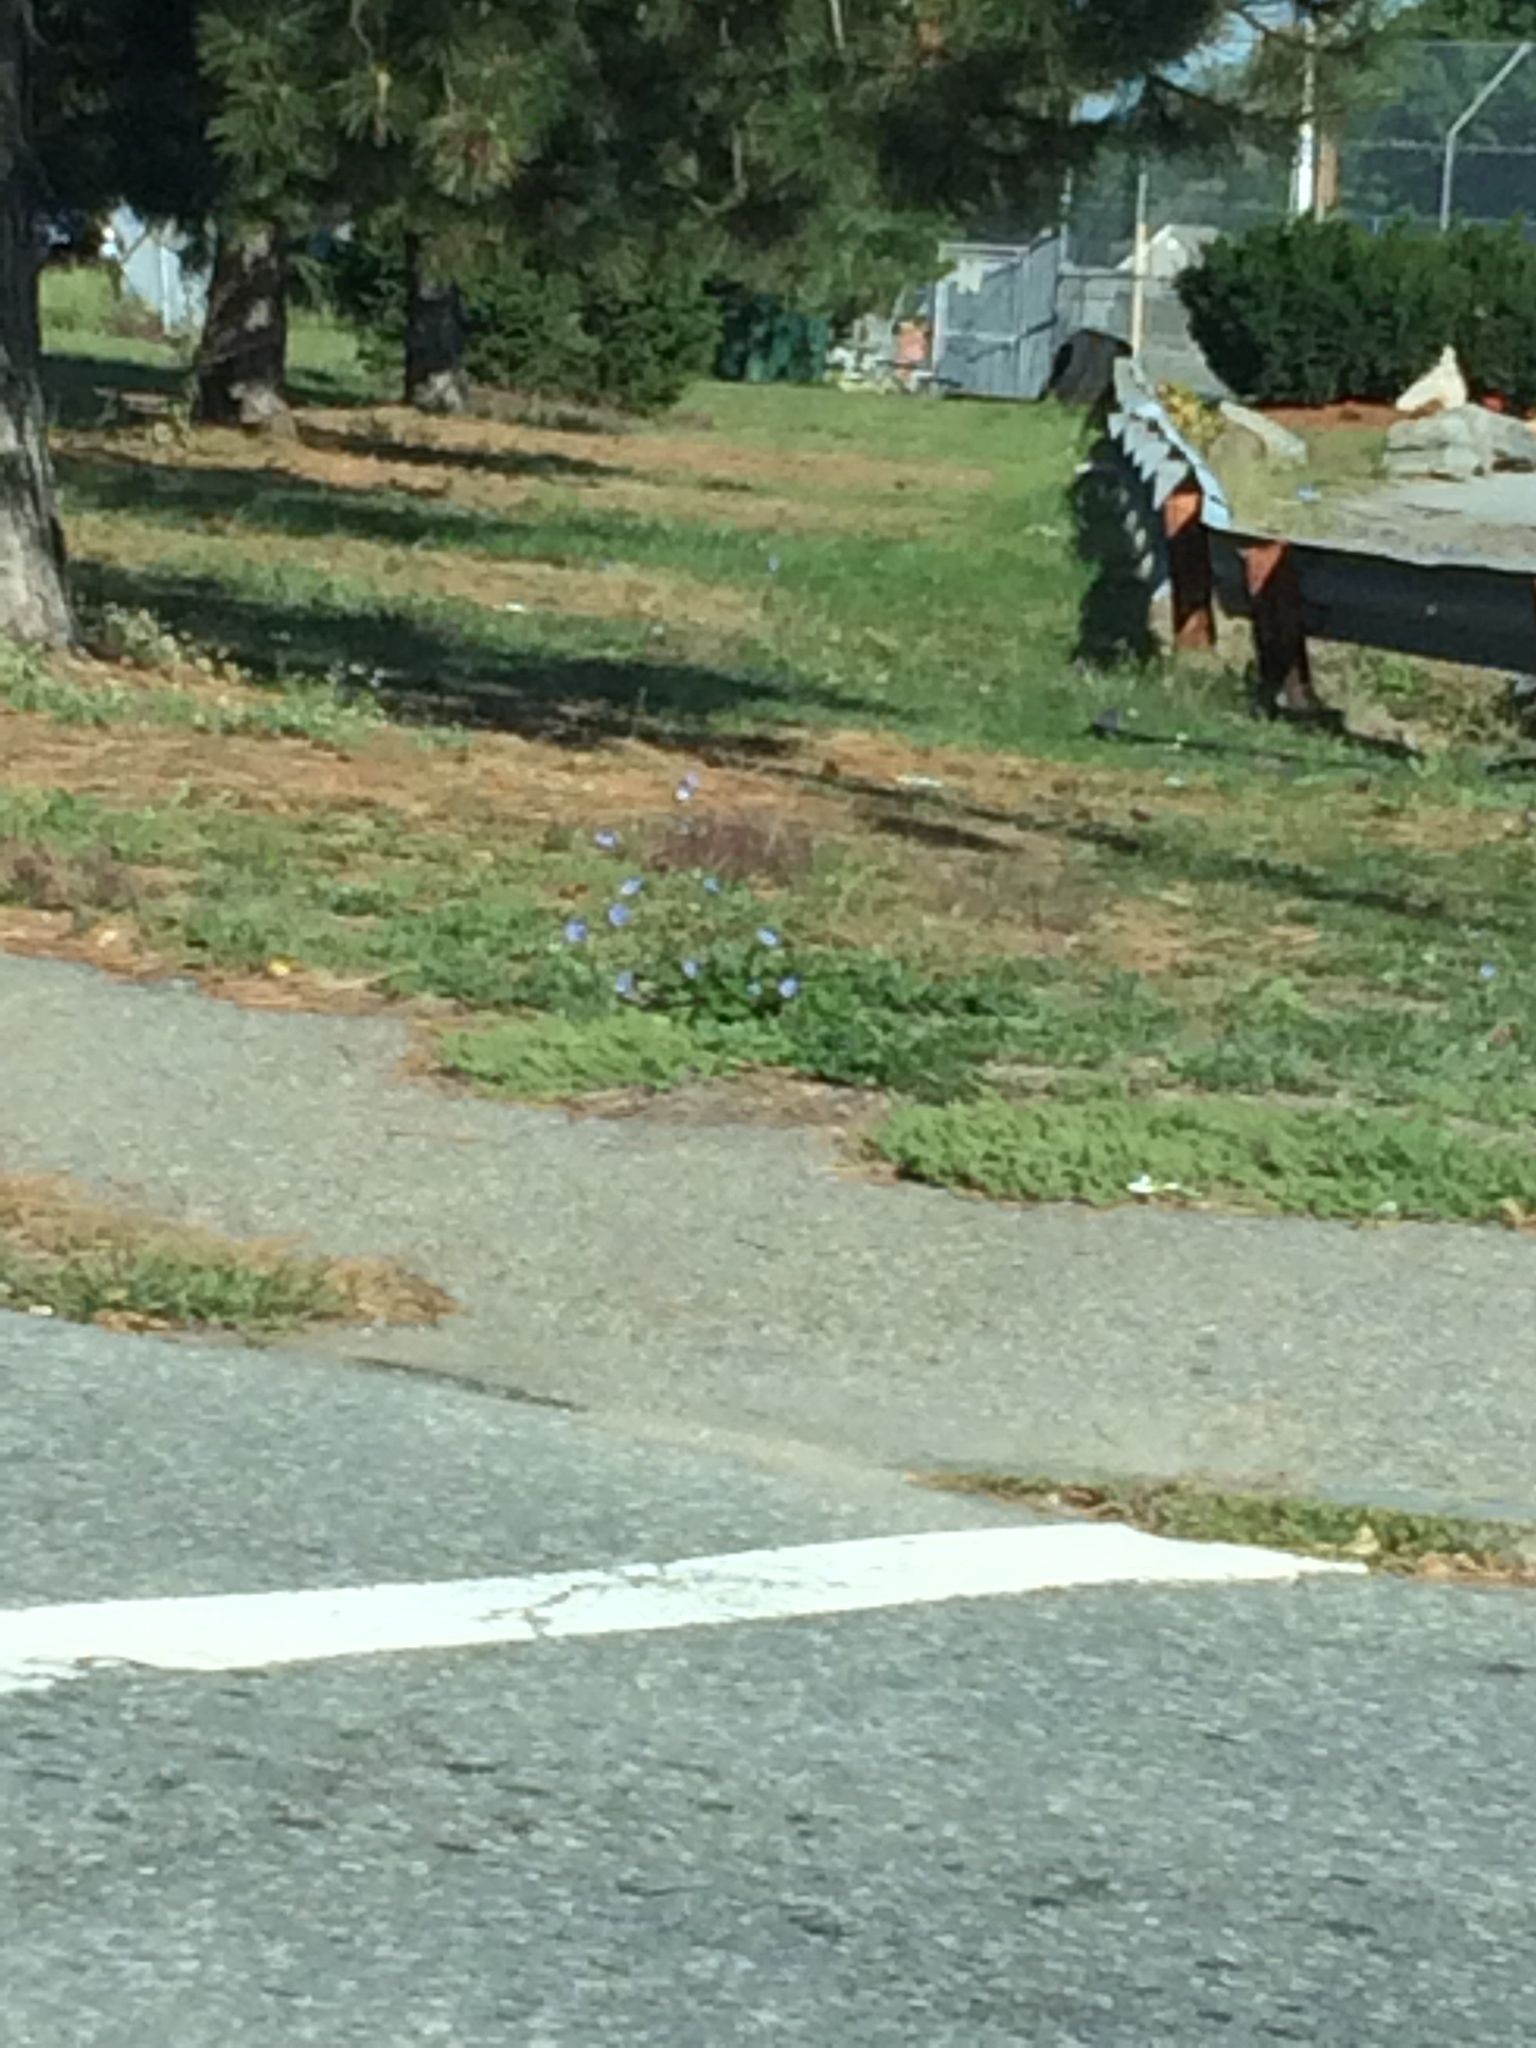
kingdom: Plantae
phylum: Tracheophyta
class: Magnoliopsida
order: Asterales
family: Asteraceae
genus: Cichorium
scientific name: Cichorium intybus
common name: Chicory
